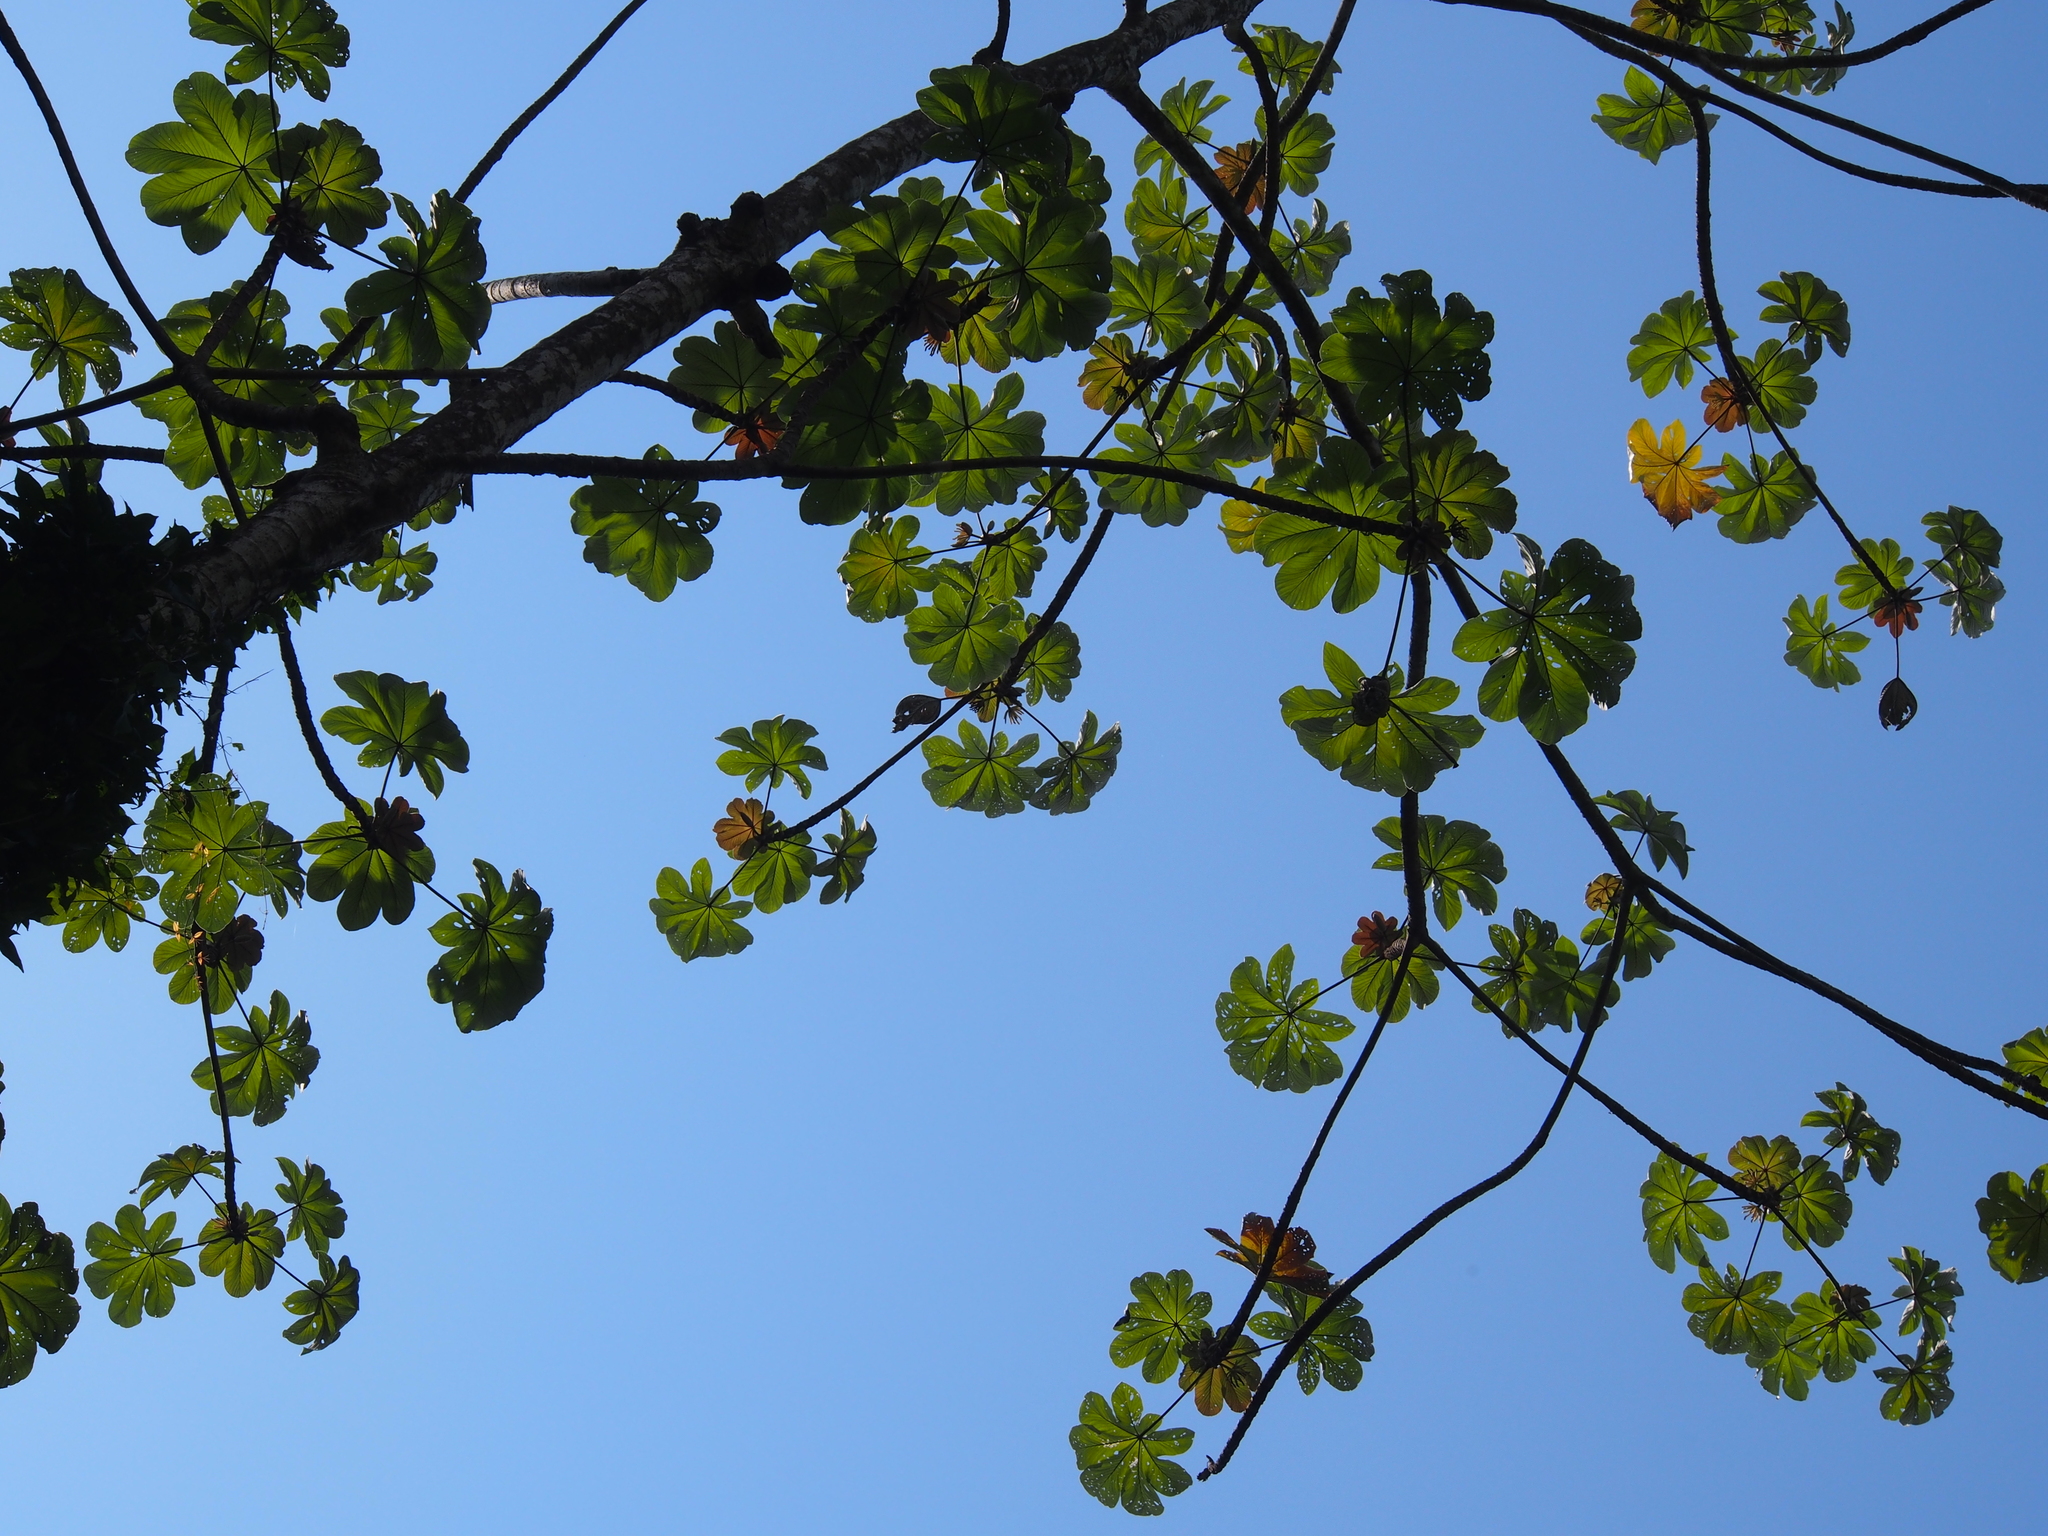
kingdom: Plantae
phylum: Tracheophyta
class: Magnoliopsida
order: Rosales
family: Urticaceae
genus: Cecropia
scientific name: Cecropia peltata
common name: Trumpet-tree
